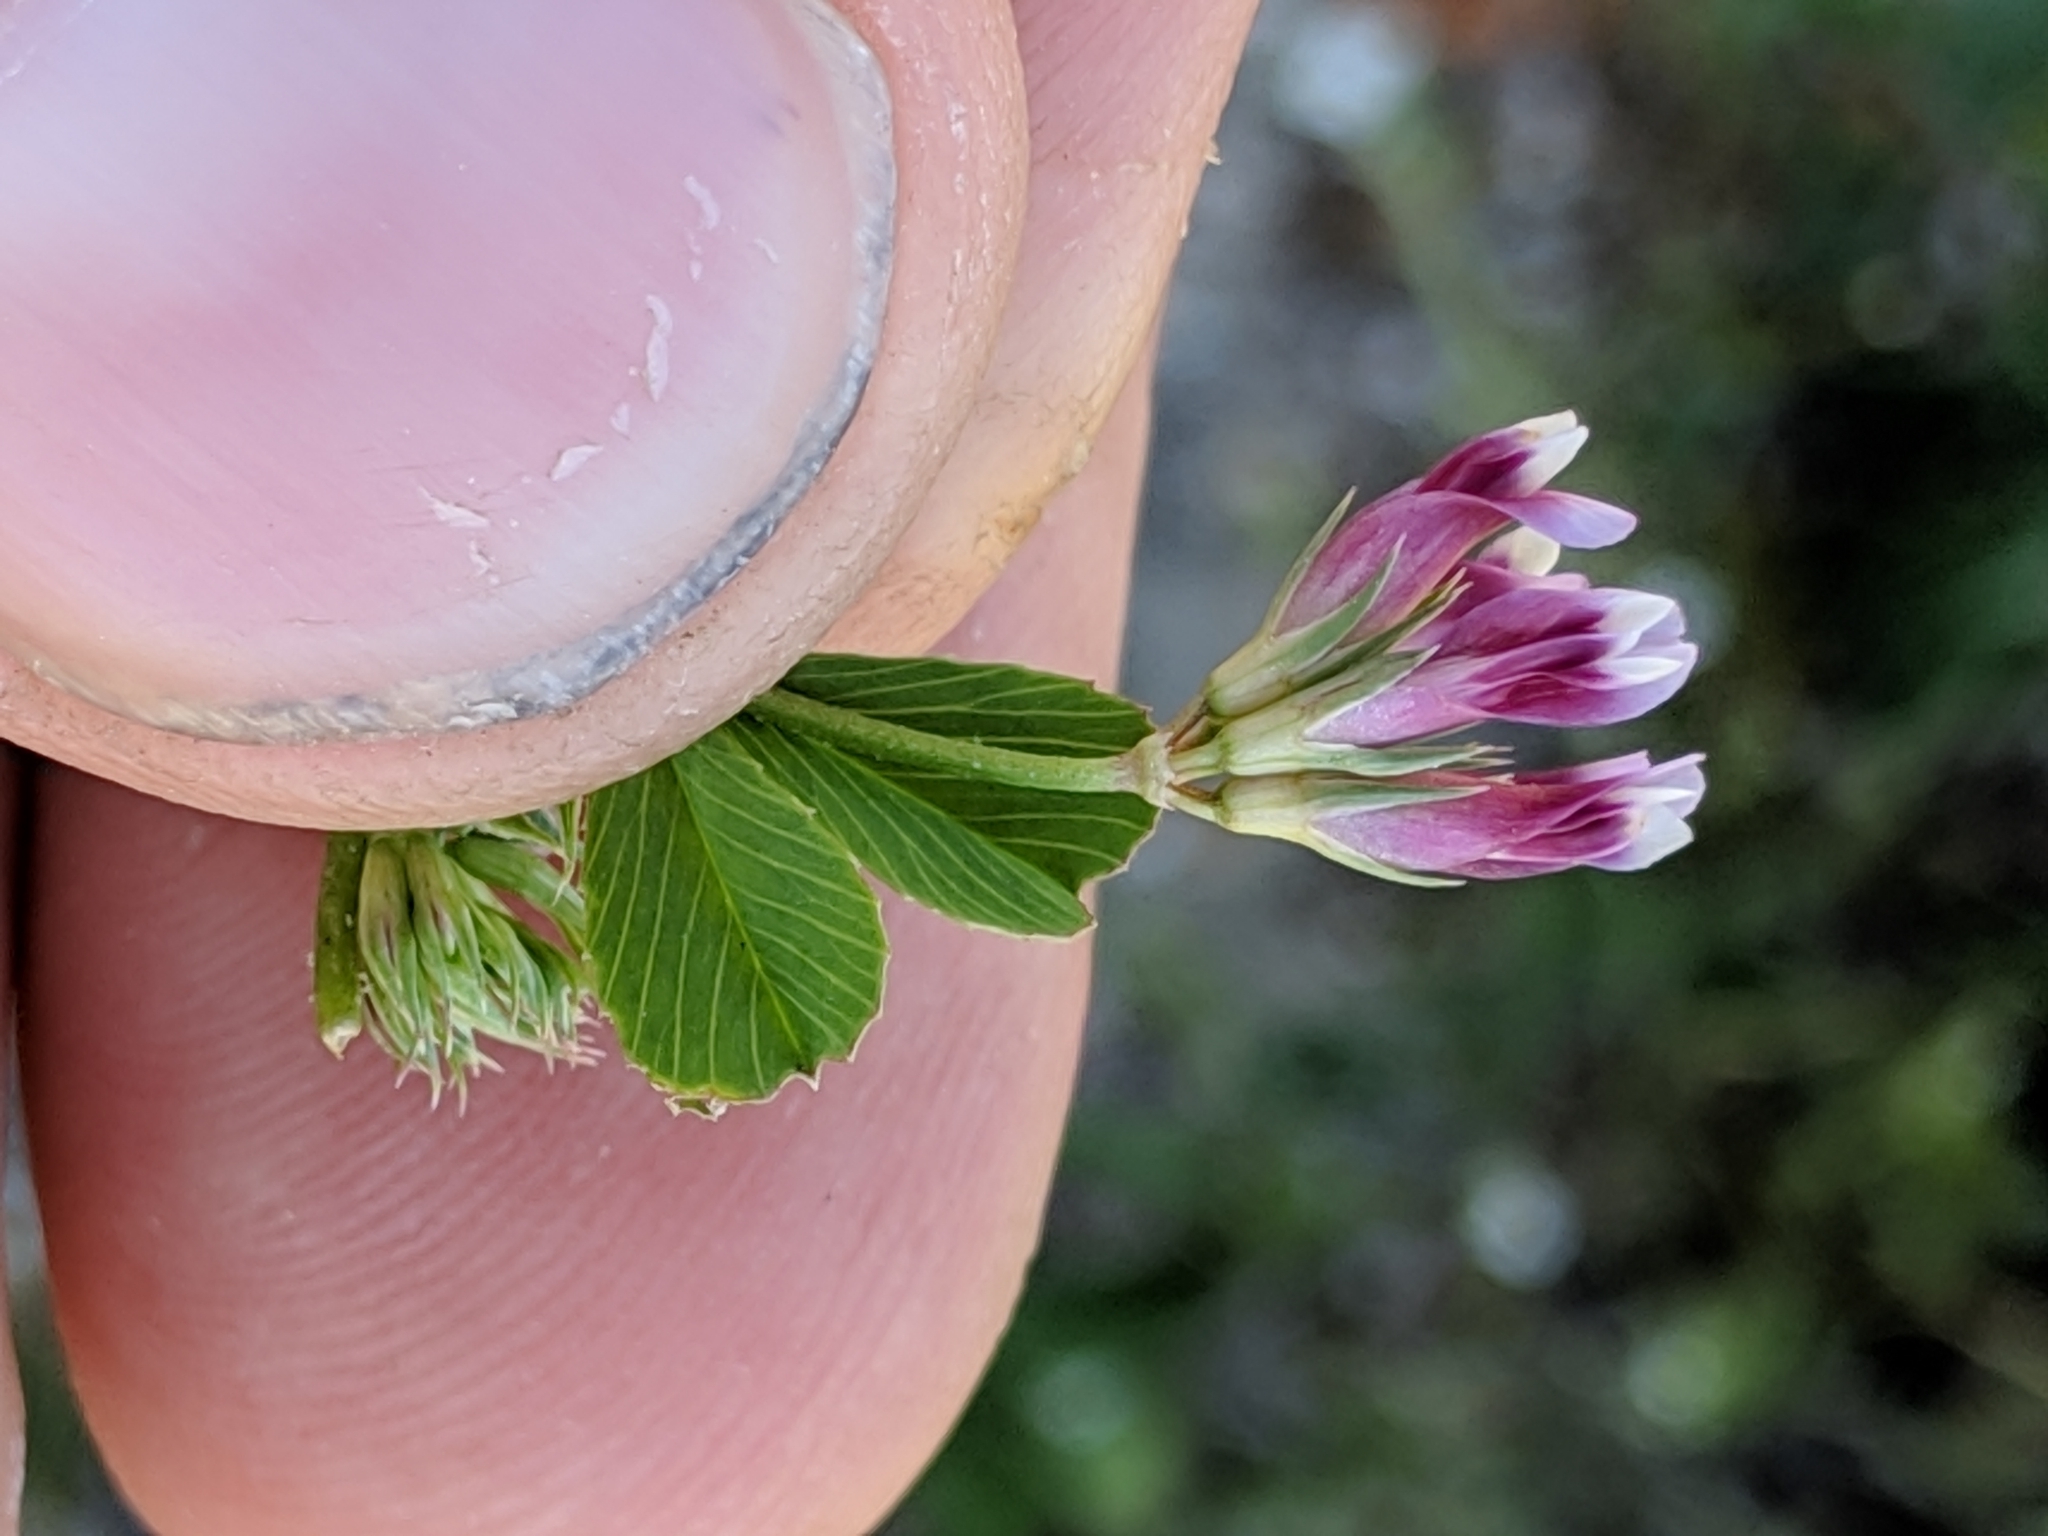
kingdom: Plantae
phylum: Tracheophyta
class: Magnoliopsida
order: Fabales
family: Fabaceae
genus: Trifolium
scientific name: Trifolium gracilentum
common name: Slender clover
